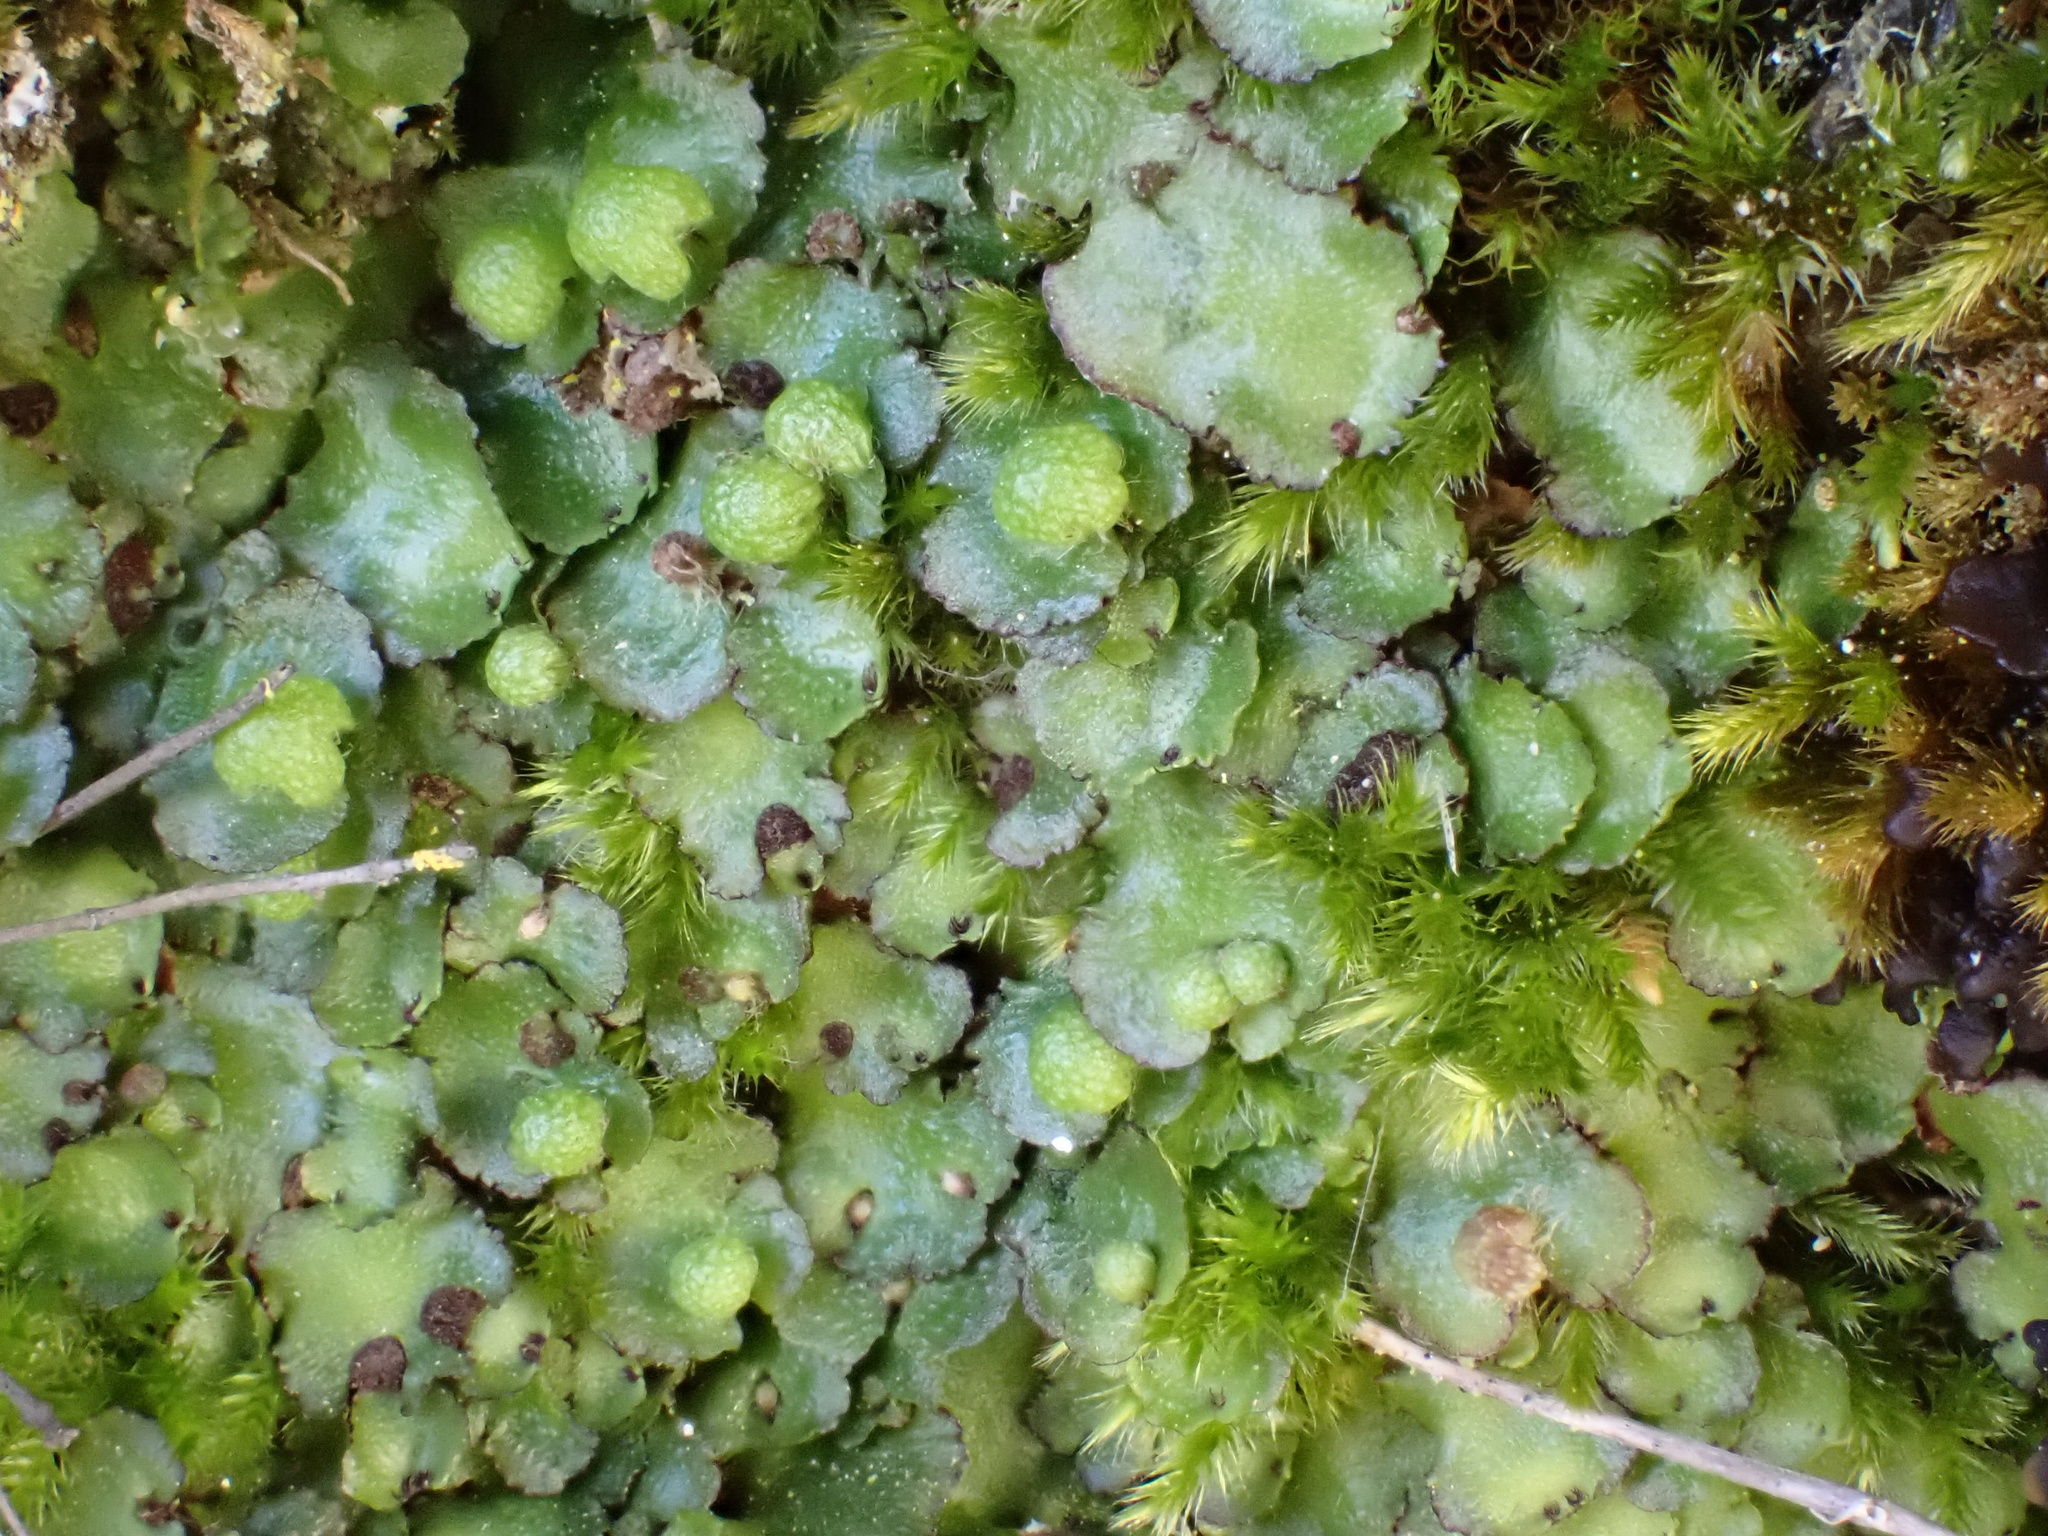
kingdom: Plantae
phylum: Marchantiophyta
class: Marchantiopsida
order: Marchantiales
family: Aytoniaceae
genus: Reboulia
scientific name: Reboulia hemisphaerica
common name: Purple-margined liverwort
